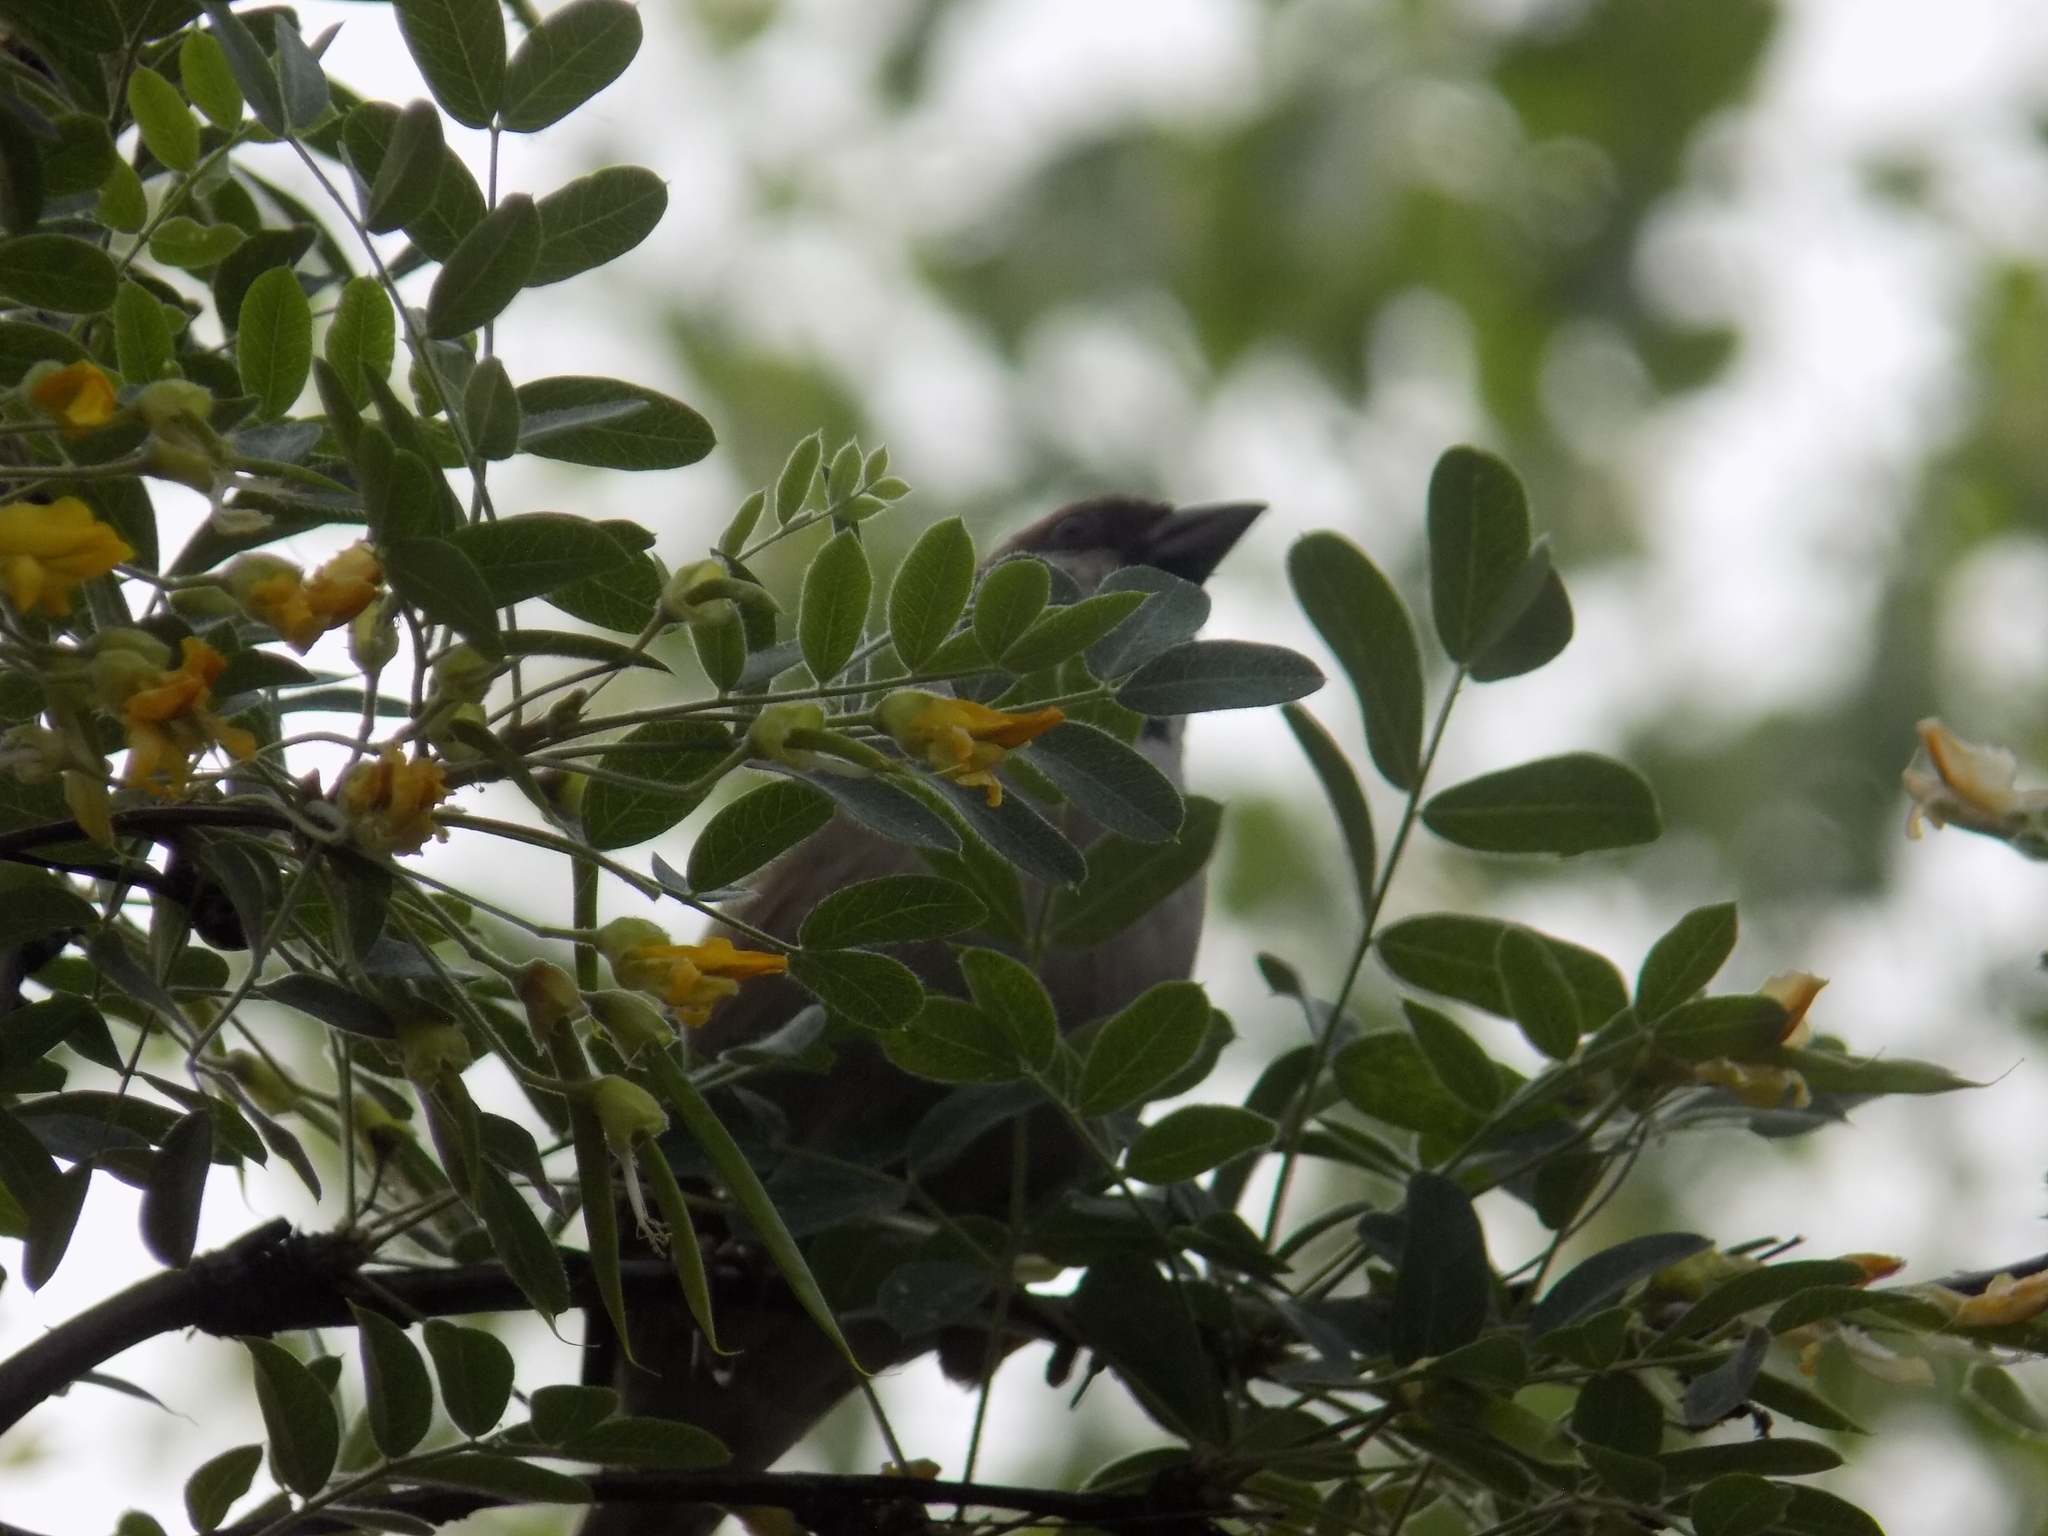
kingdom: Animalia
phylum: Chordata
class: Aves
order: Passeriformes
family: Passeridae
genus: Passer
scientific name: Passer montanus
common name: Eurasian tree sparrow
